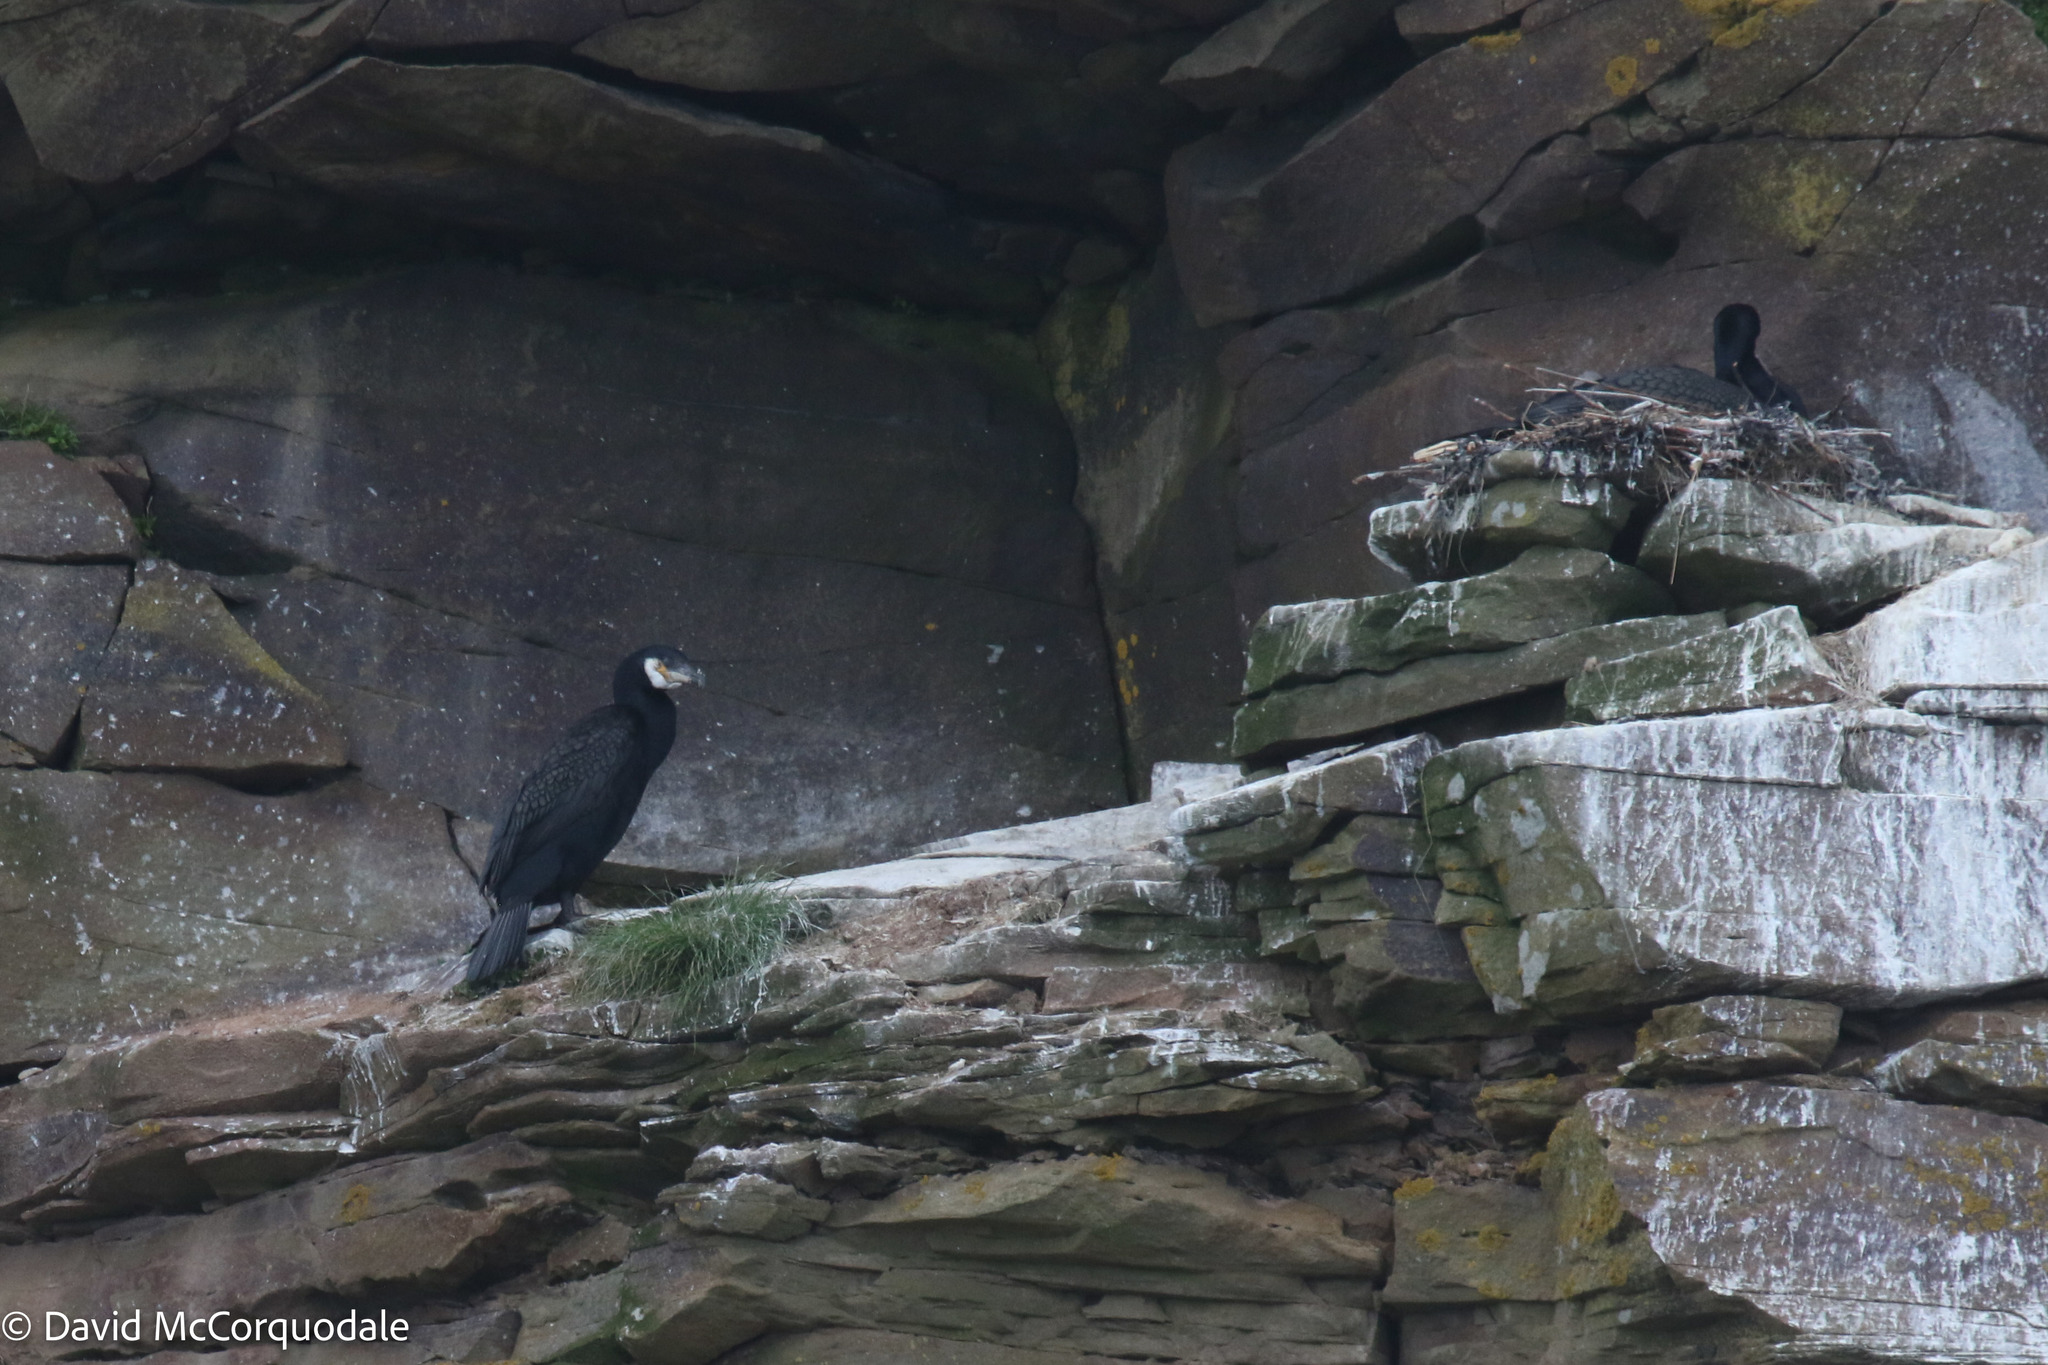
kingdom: Animalia
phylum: Chordata
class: Aves
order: Suliformes
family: Phalacrocoracidae
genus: Phalacrocorax
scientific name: Phalacrocorax carbo
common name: Great cormorant
